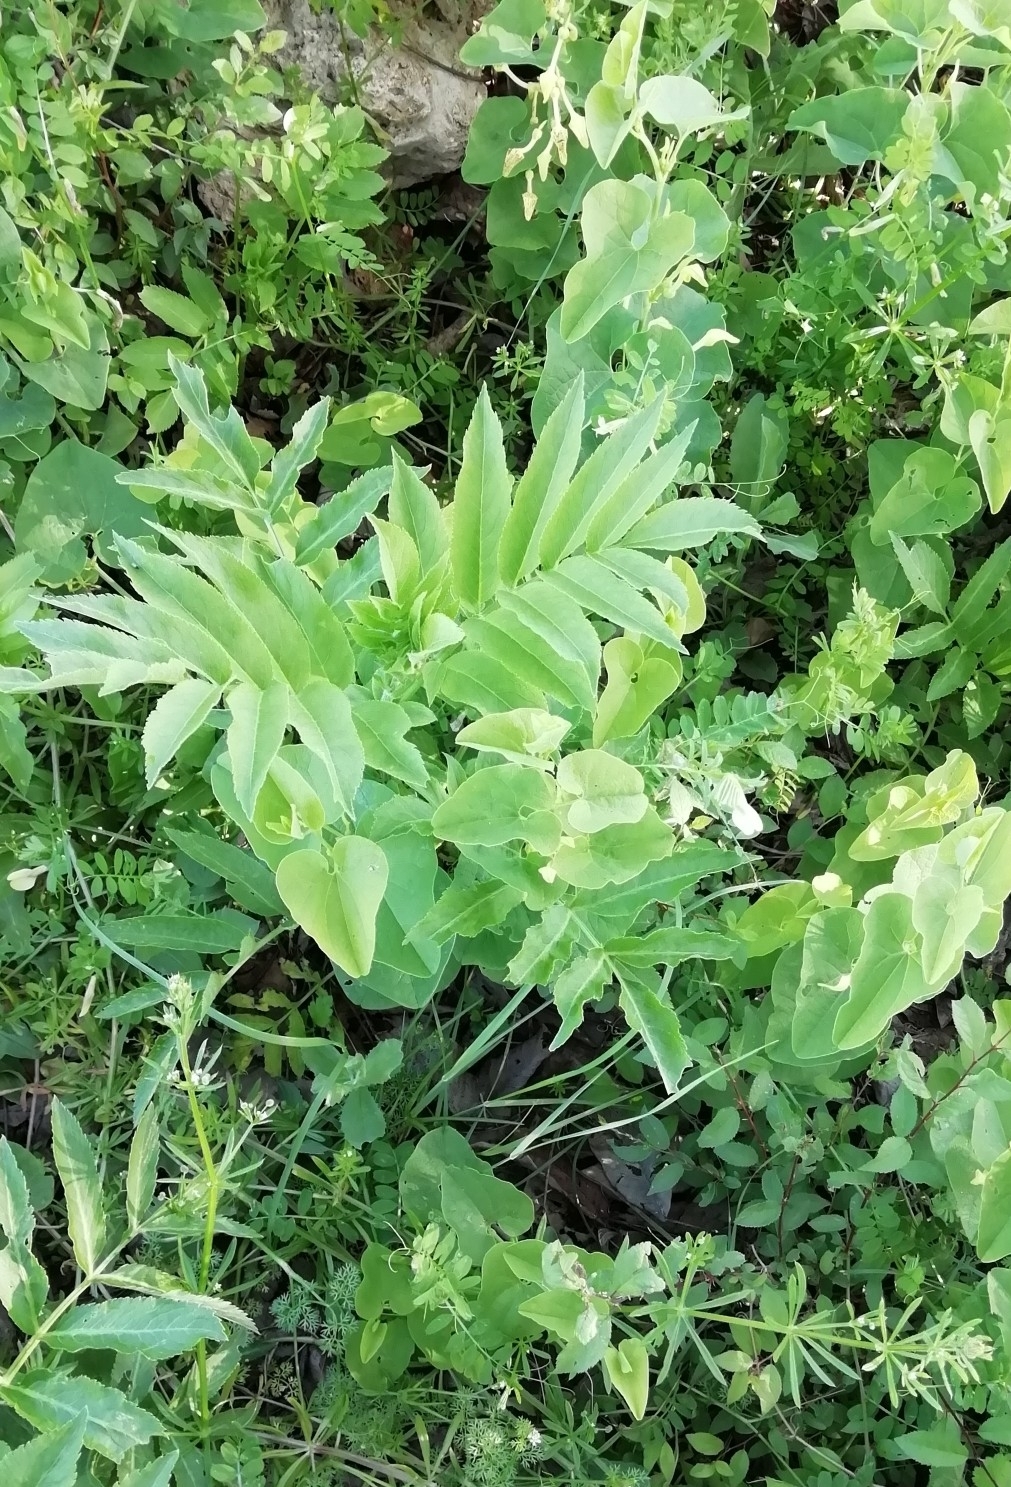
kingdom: Plantae
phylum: Tracheophyta
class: Magnoliopsida
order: Dipsacales
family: Viburnaceae
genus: Sambucus
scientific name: Sambucus ebulus
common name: Dwarf elder
